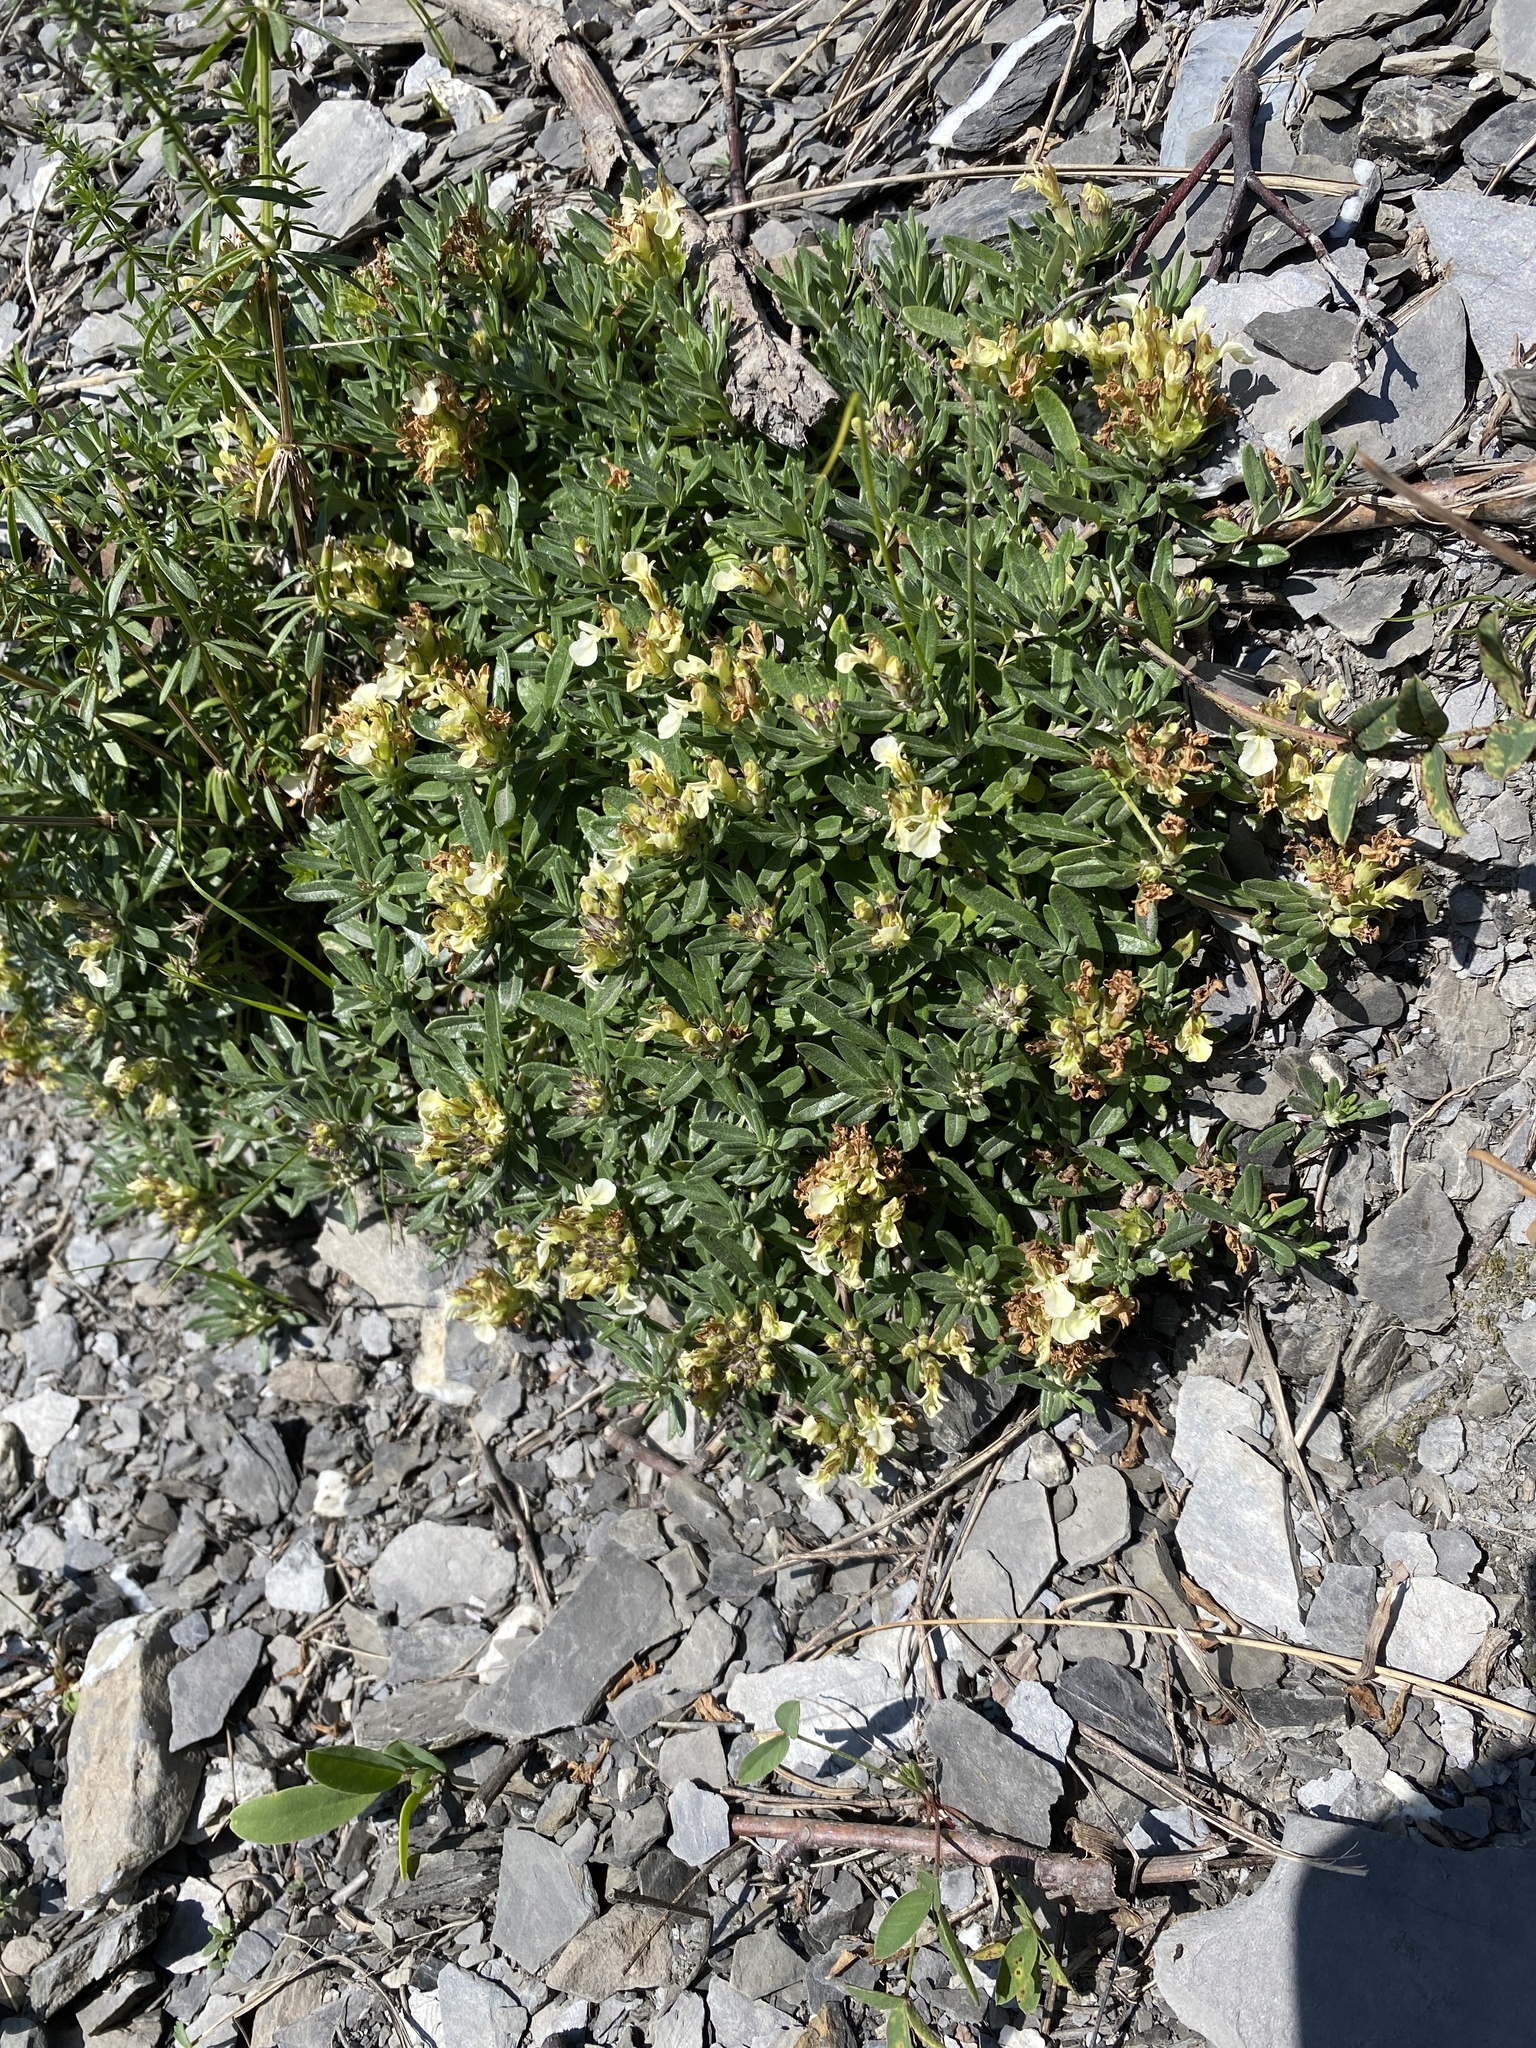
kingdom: Plantae
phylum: Tracheophyta
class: Magnoliopsida
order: Lamiales
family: Lamiaceae
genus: Teucrium
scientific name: Teucrium montanum
